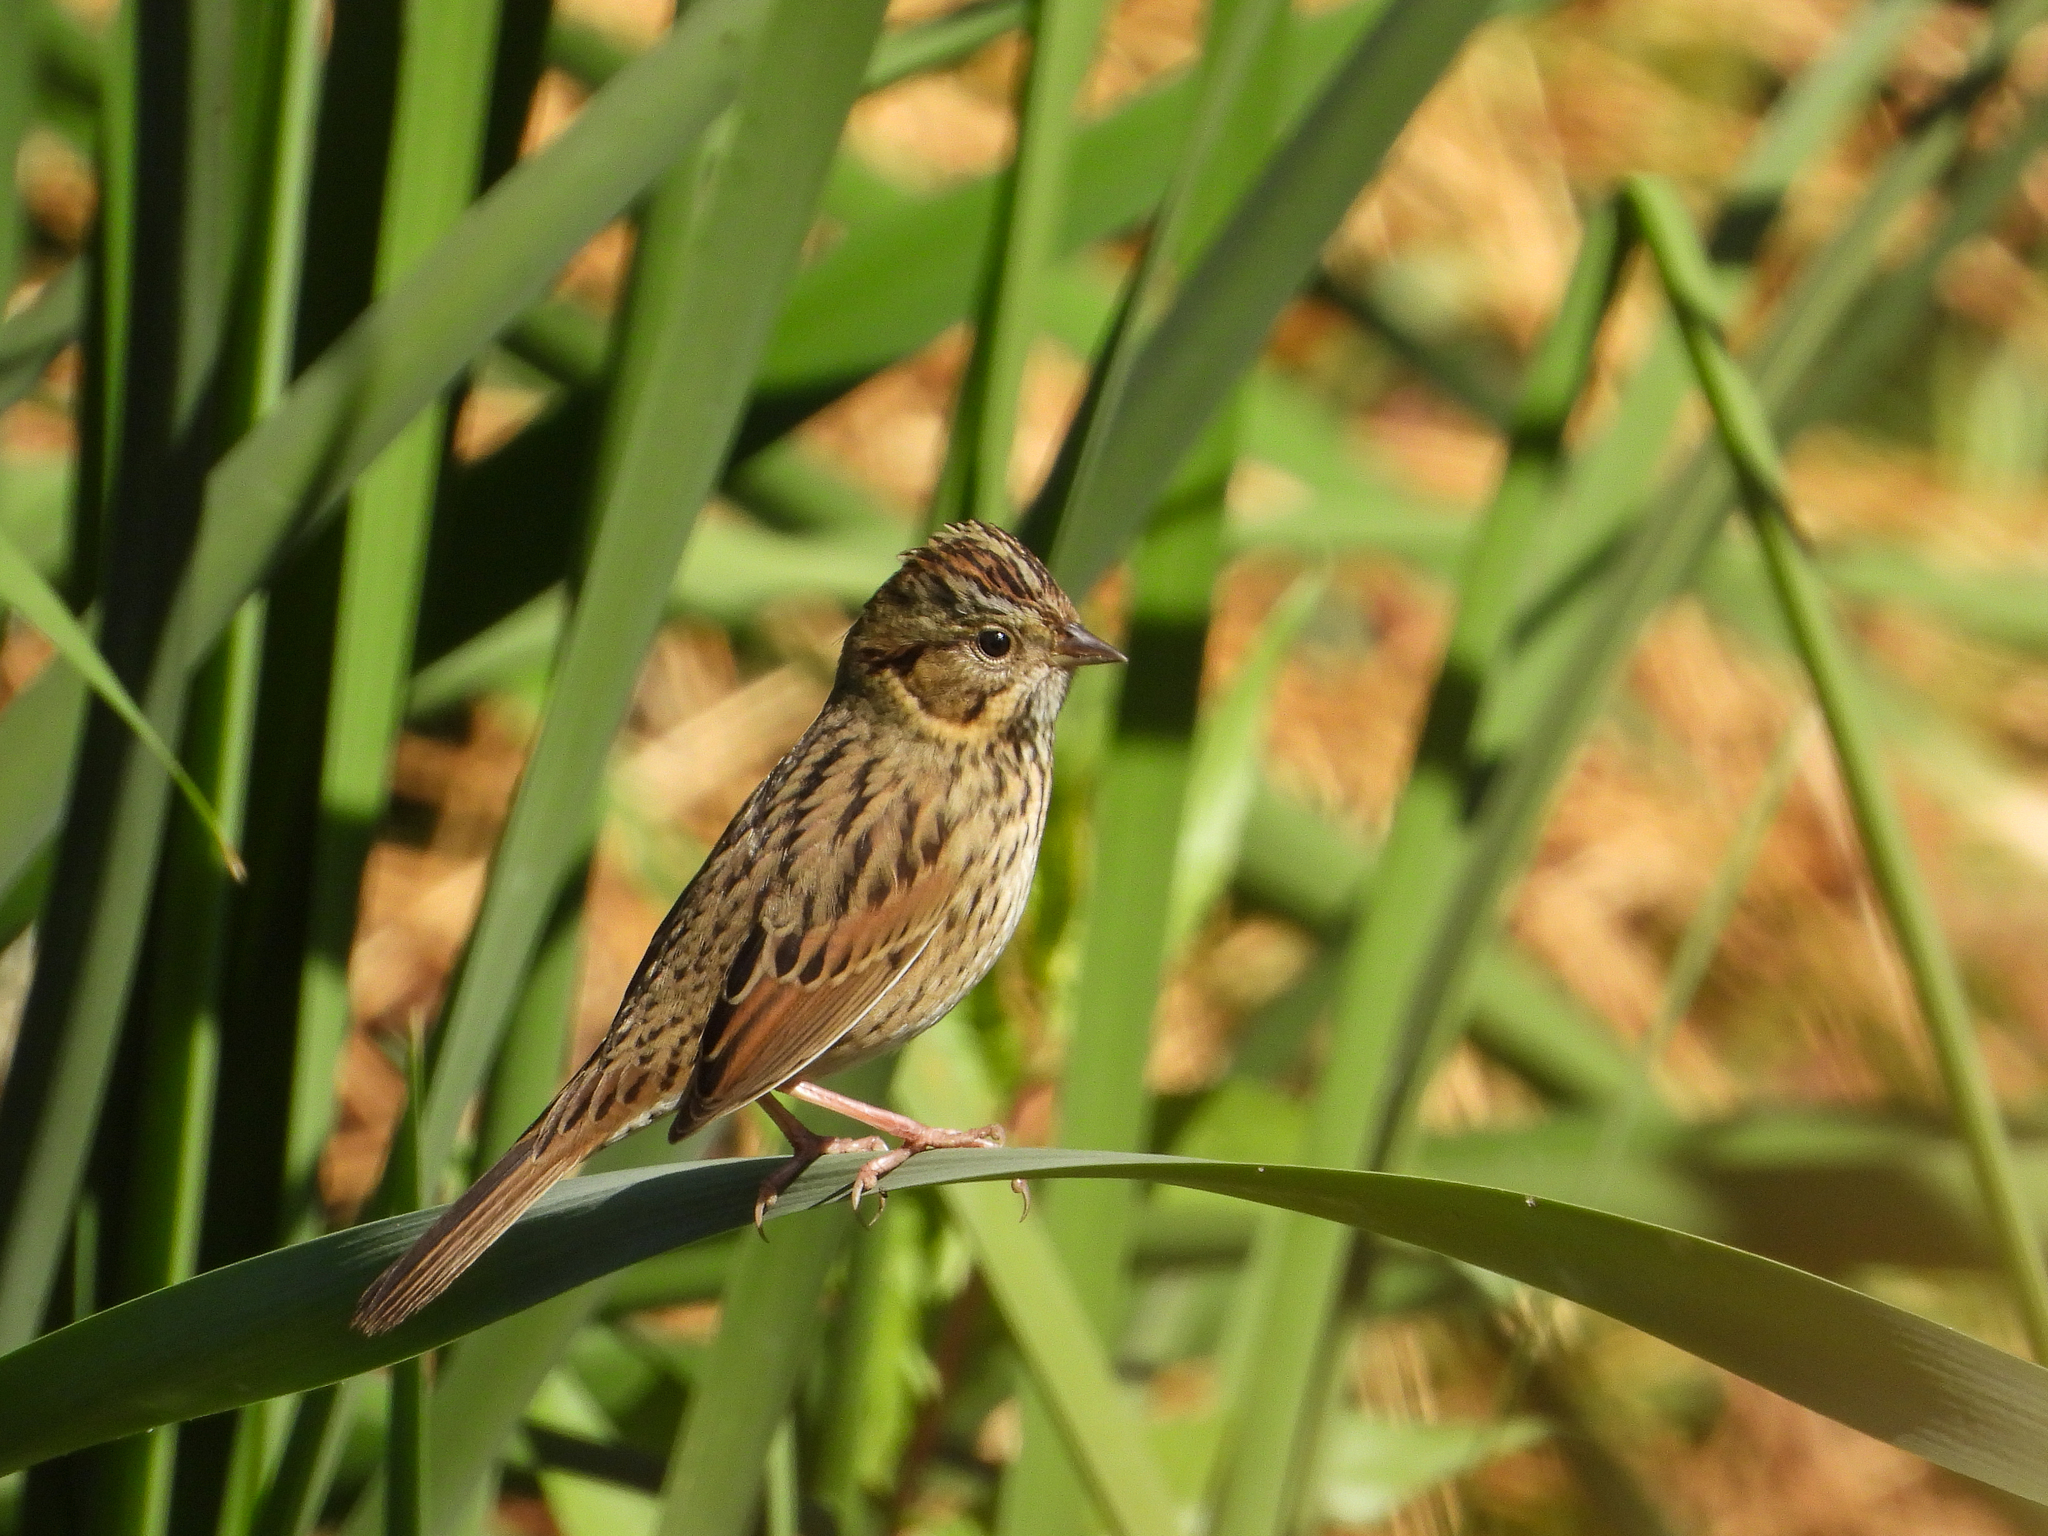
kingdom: Animalia
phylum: Chordata
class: Aves
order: Passeriformes
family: Passerellidae
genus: Melospiza
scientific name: Melospiza lincolnii
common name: Lincoln's sparrow
